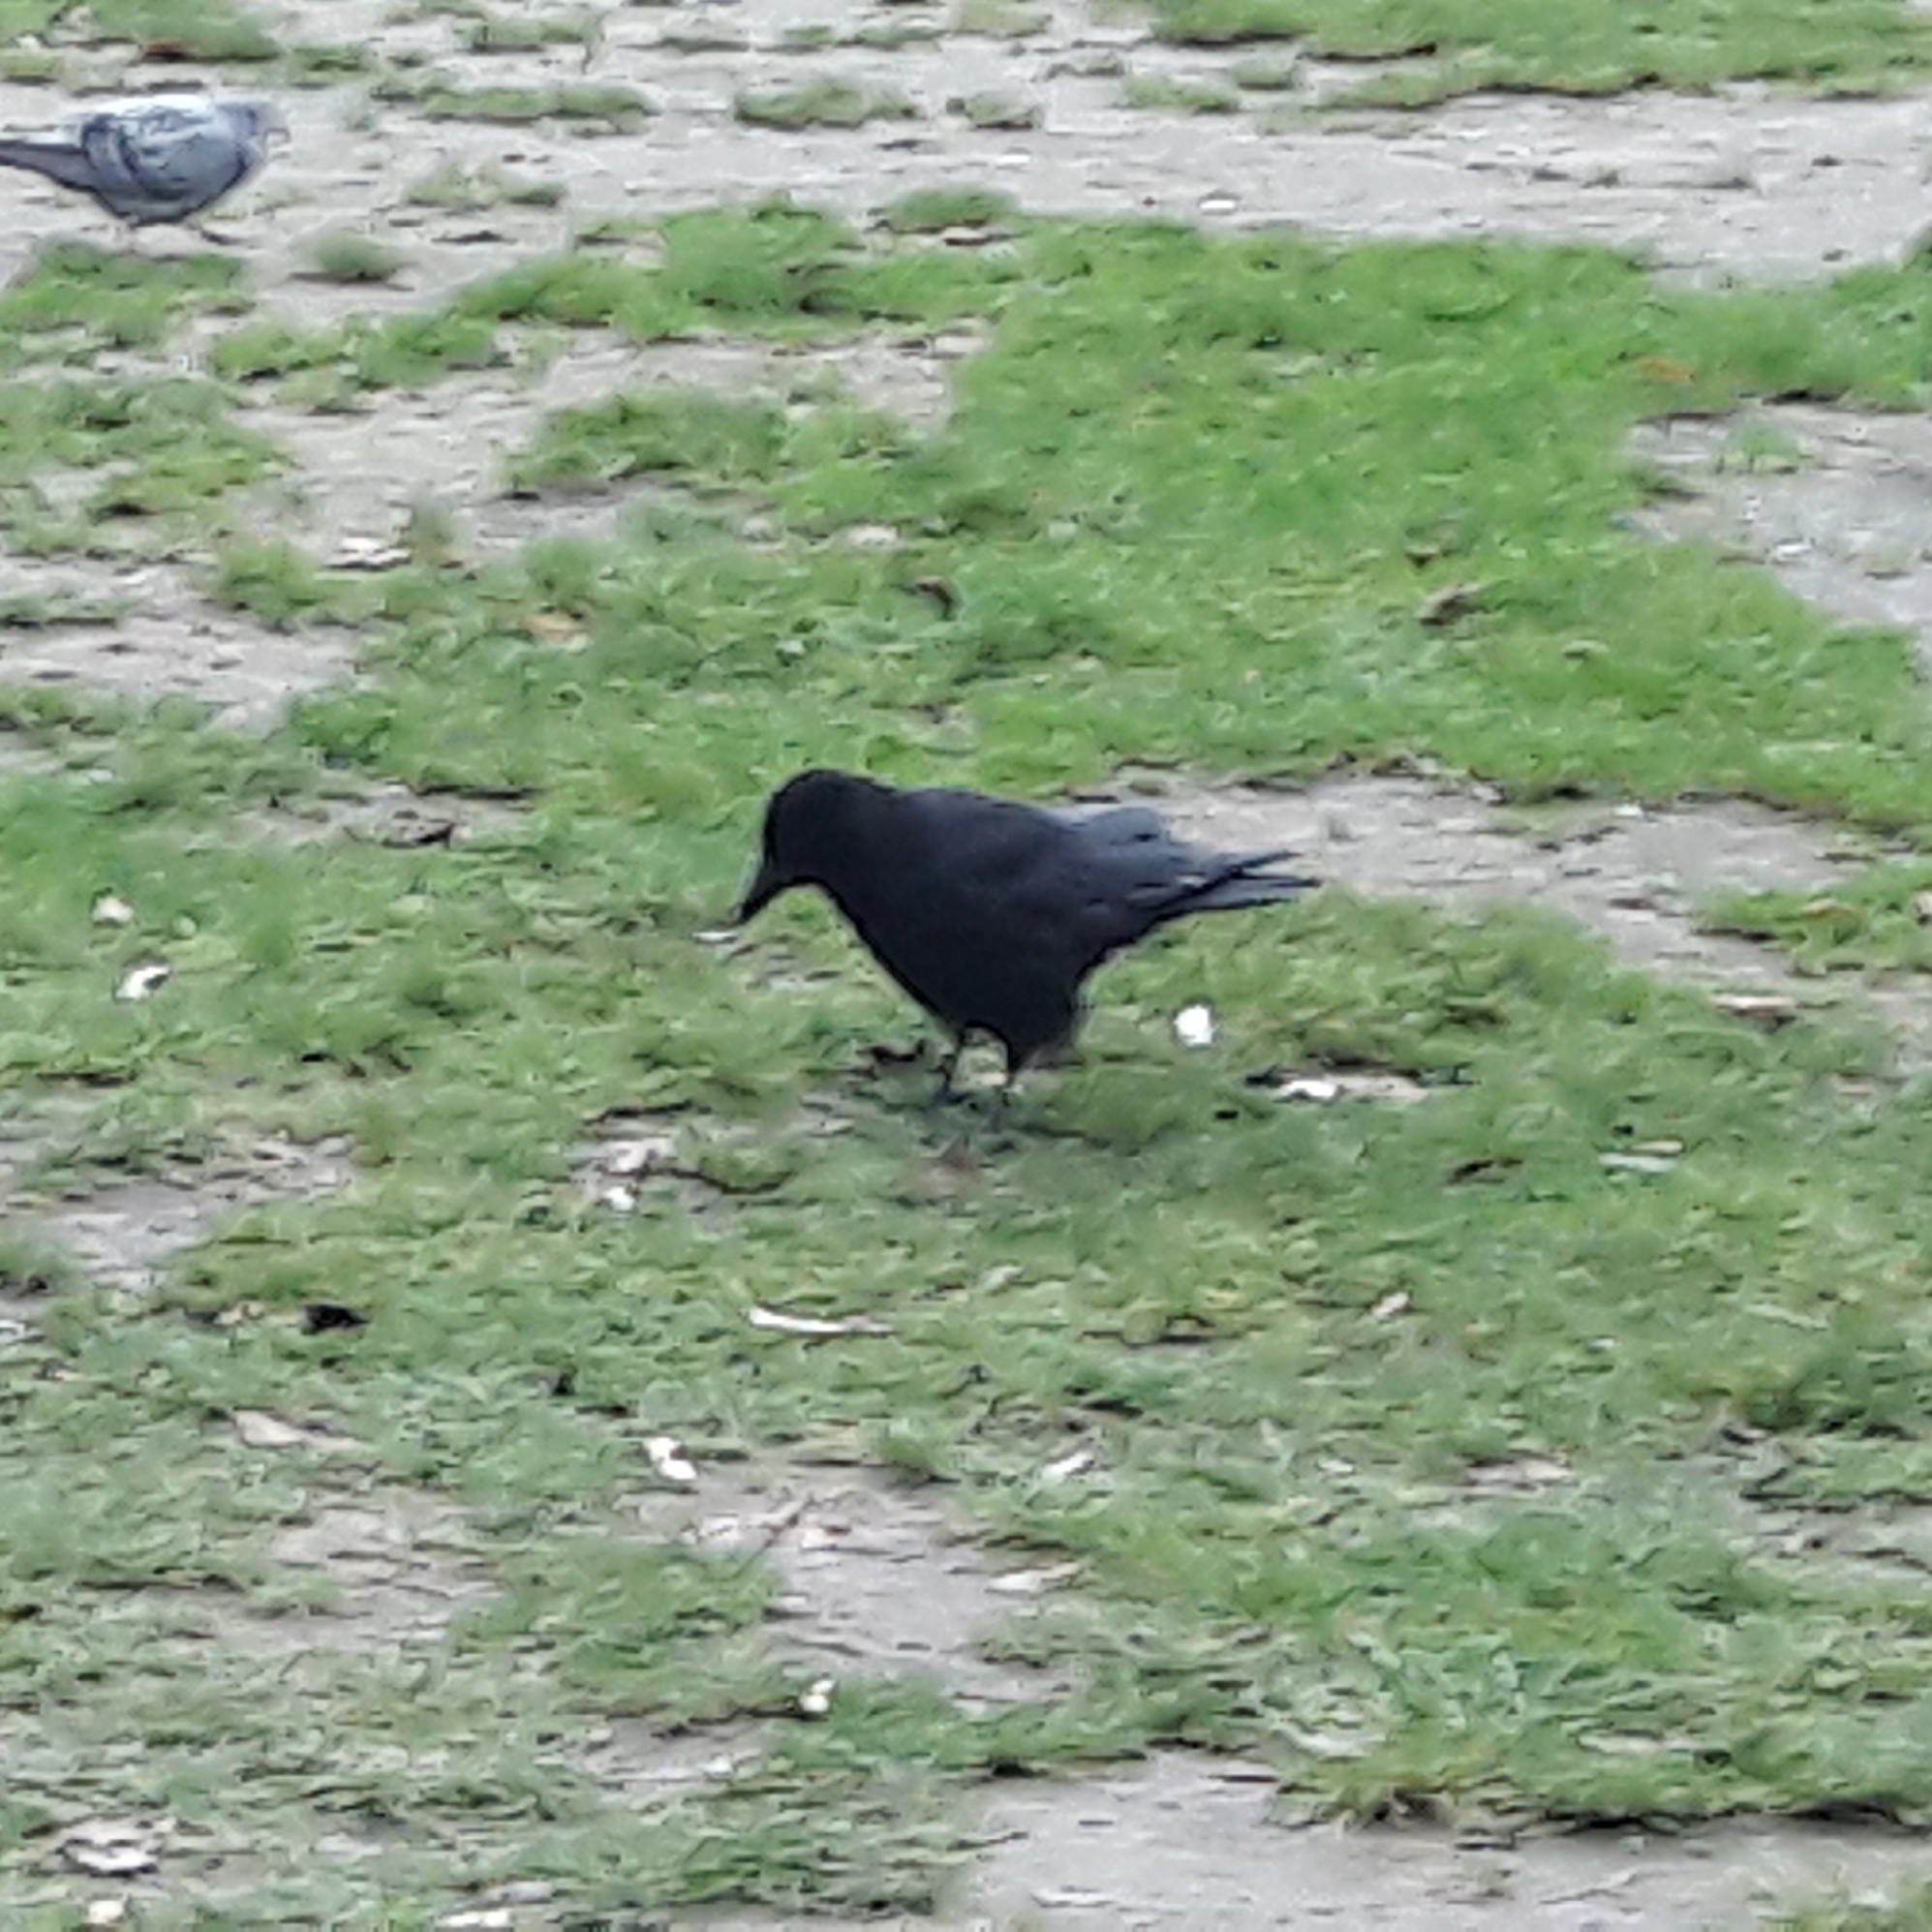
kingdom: Animalia
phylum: Chordata
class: Aves
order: Passeriformes
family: Corvidae
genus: Corvus
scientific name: Corvus corone
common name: Carrion crow
